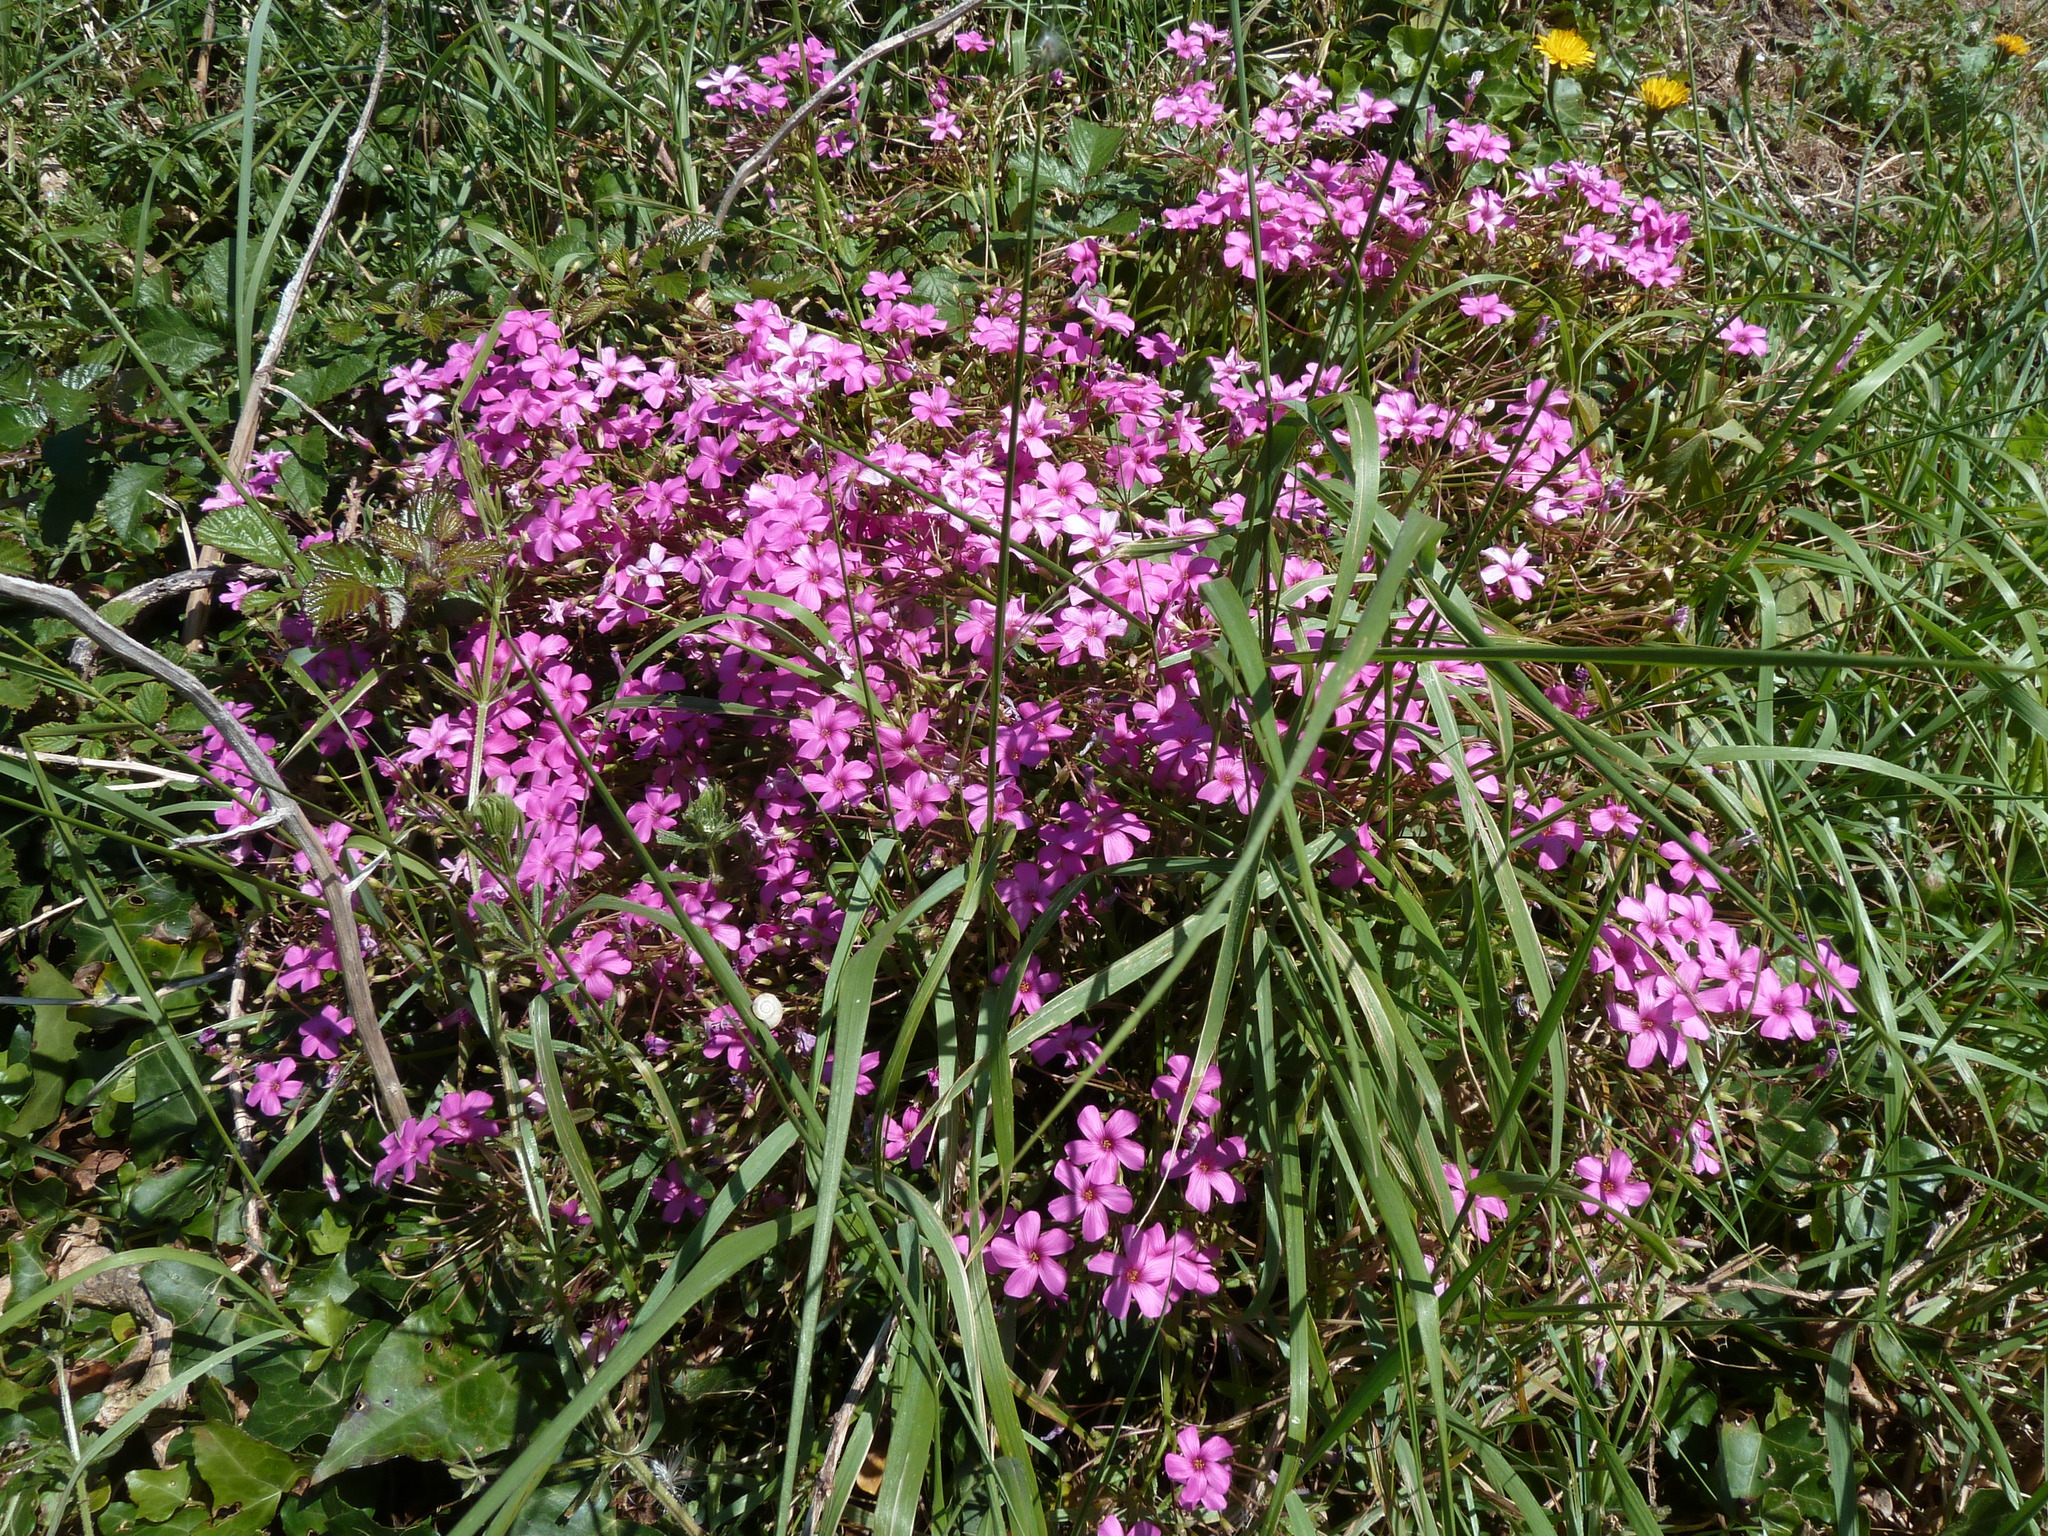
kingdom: Plantae
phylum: Tracheophyta
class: Magnoliopsida
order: Oxalidales
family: Oxalidaceae
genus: Oxalis
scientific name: Oxalis articulata
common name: Pink-sorrel
